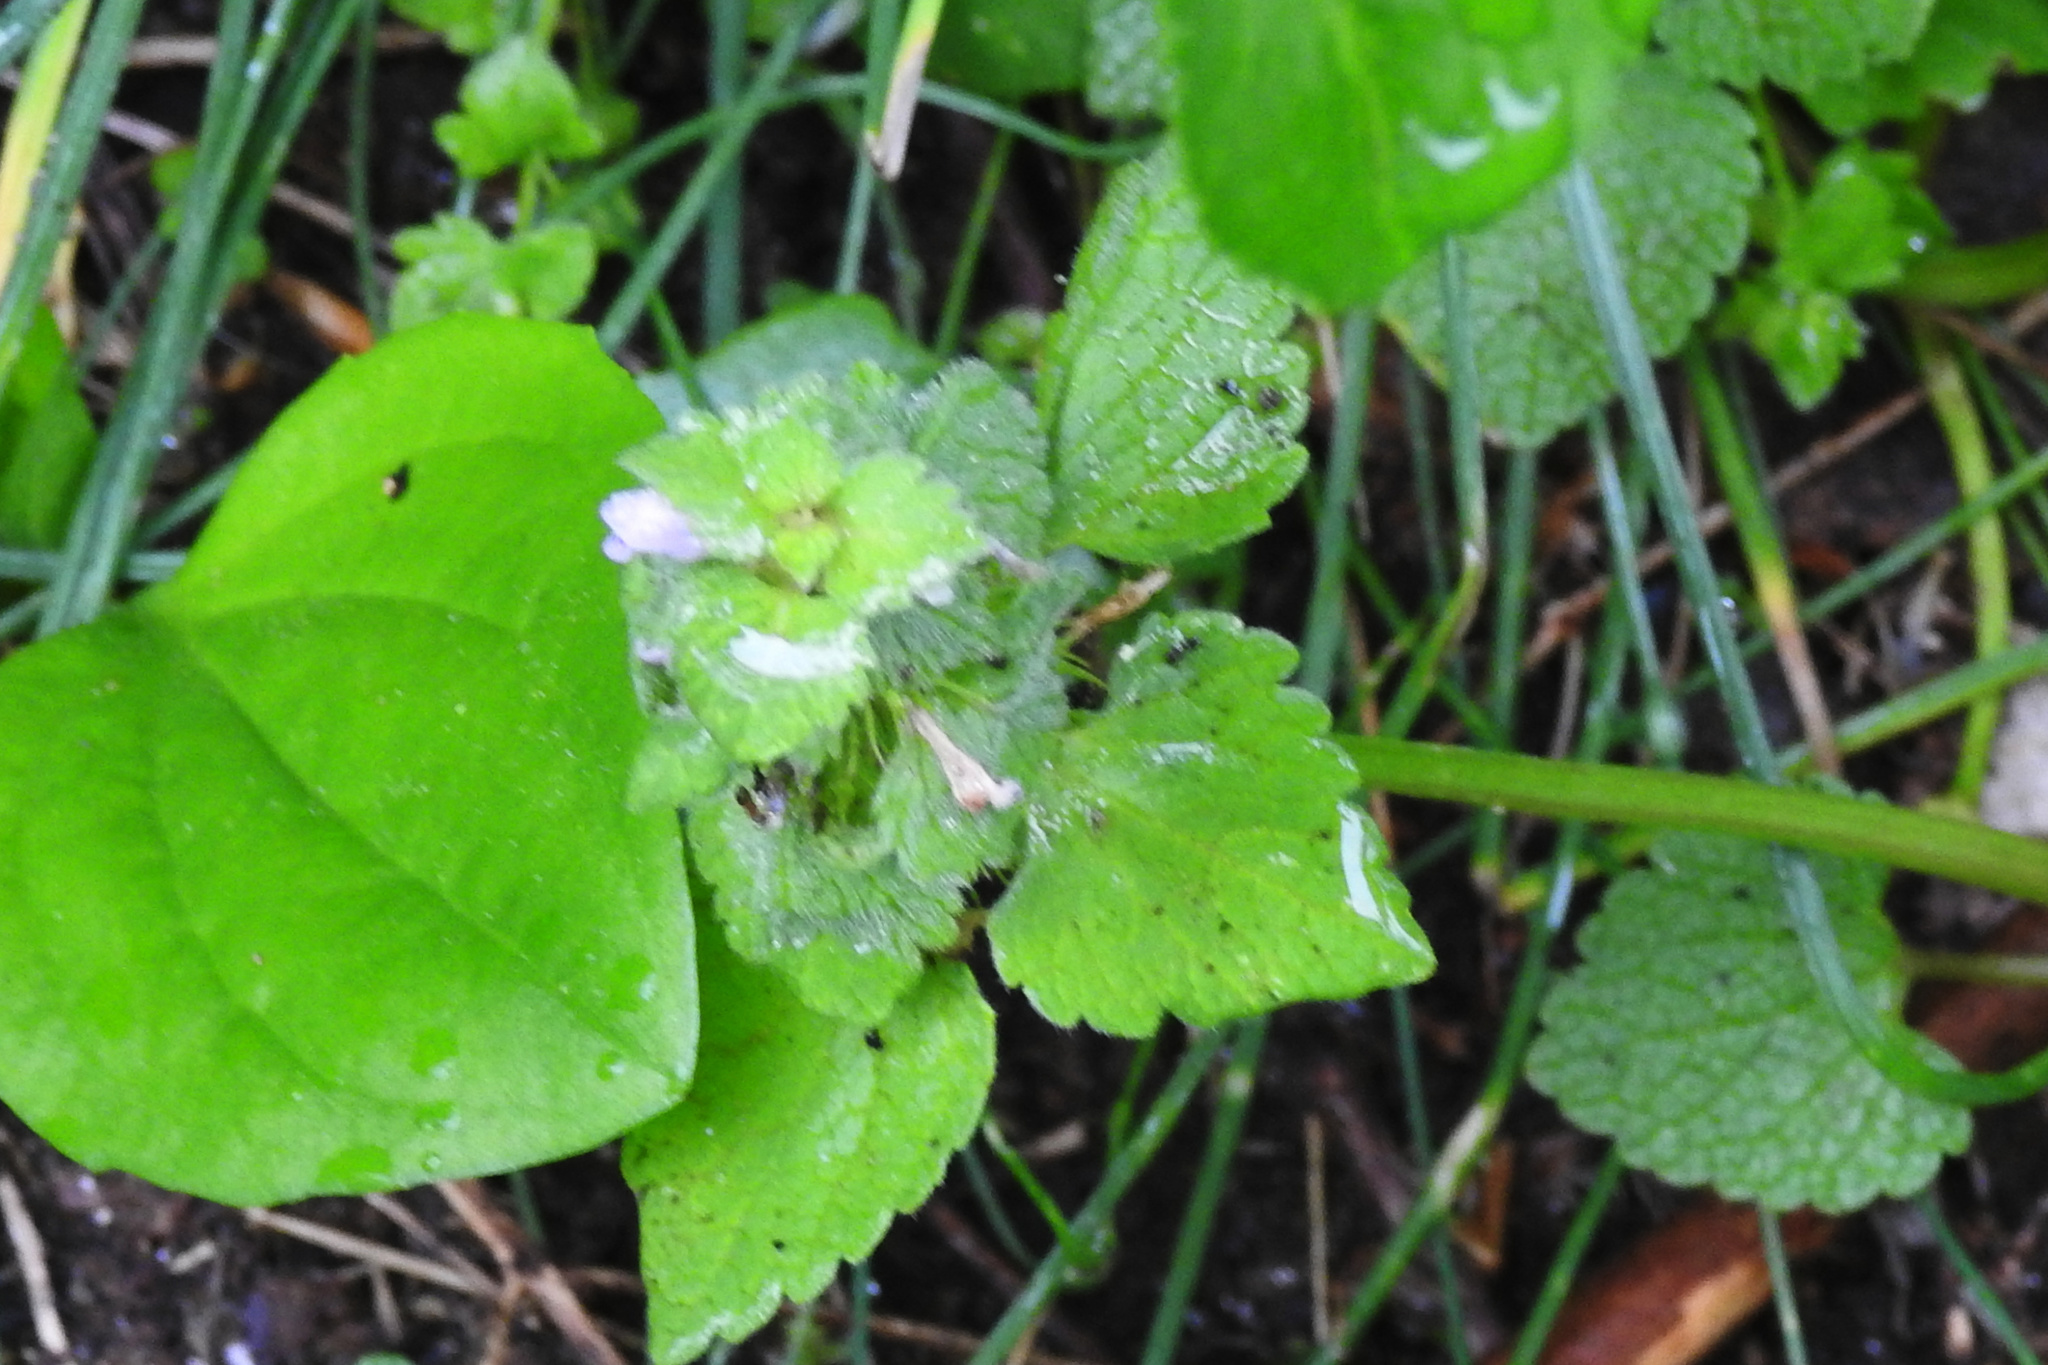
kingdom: Plantae
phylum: Tracheophyta
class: Magnoliopsida
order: Lamiales
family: Lamiaceae
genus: Lamium
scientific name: Lamium purpureum
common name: Red dead-nettle
